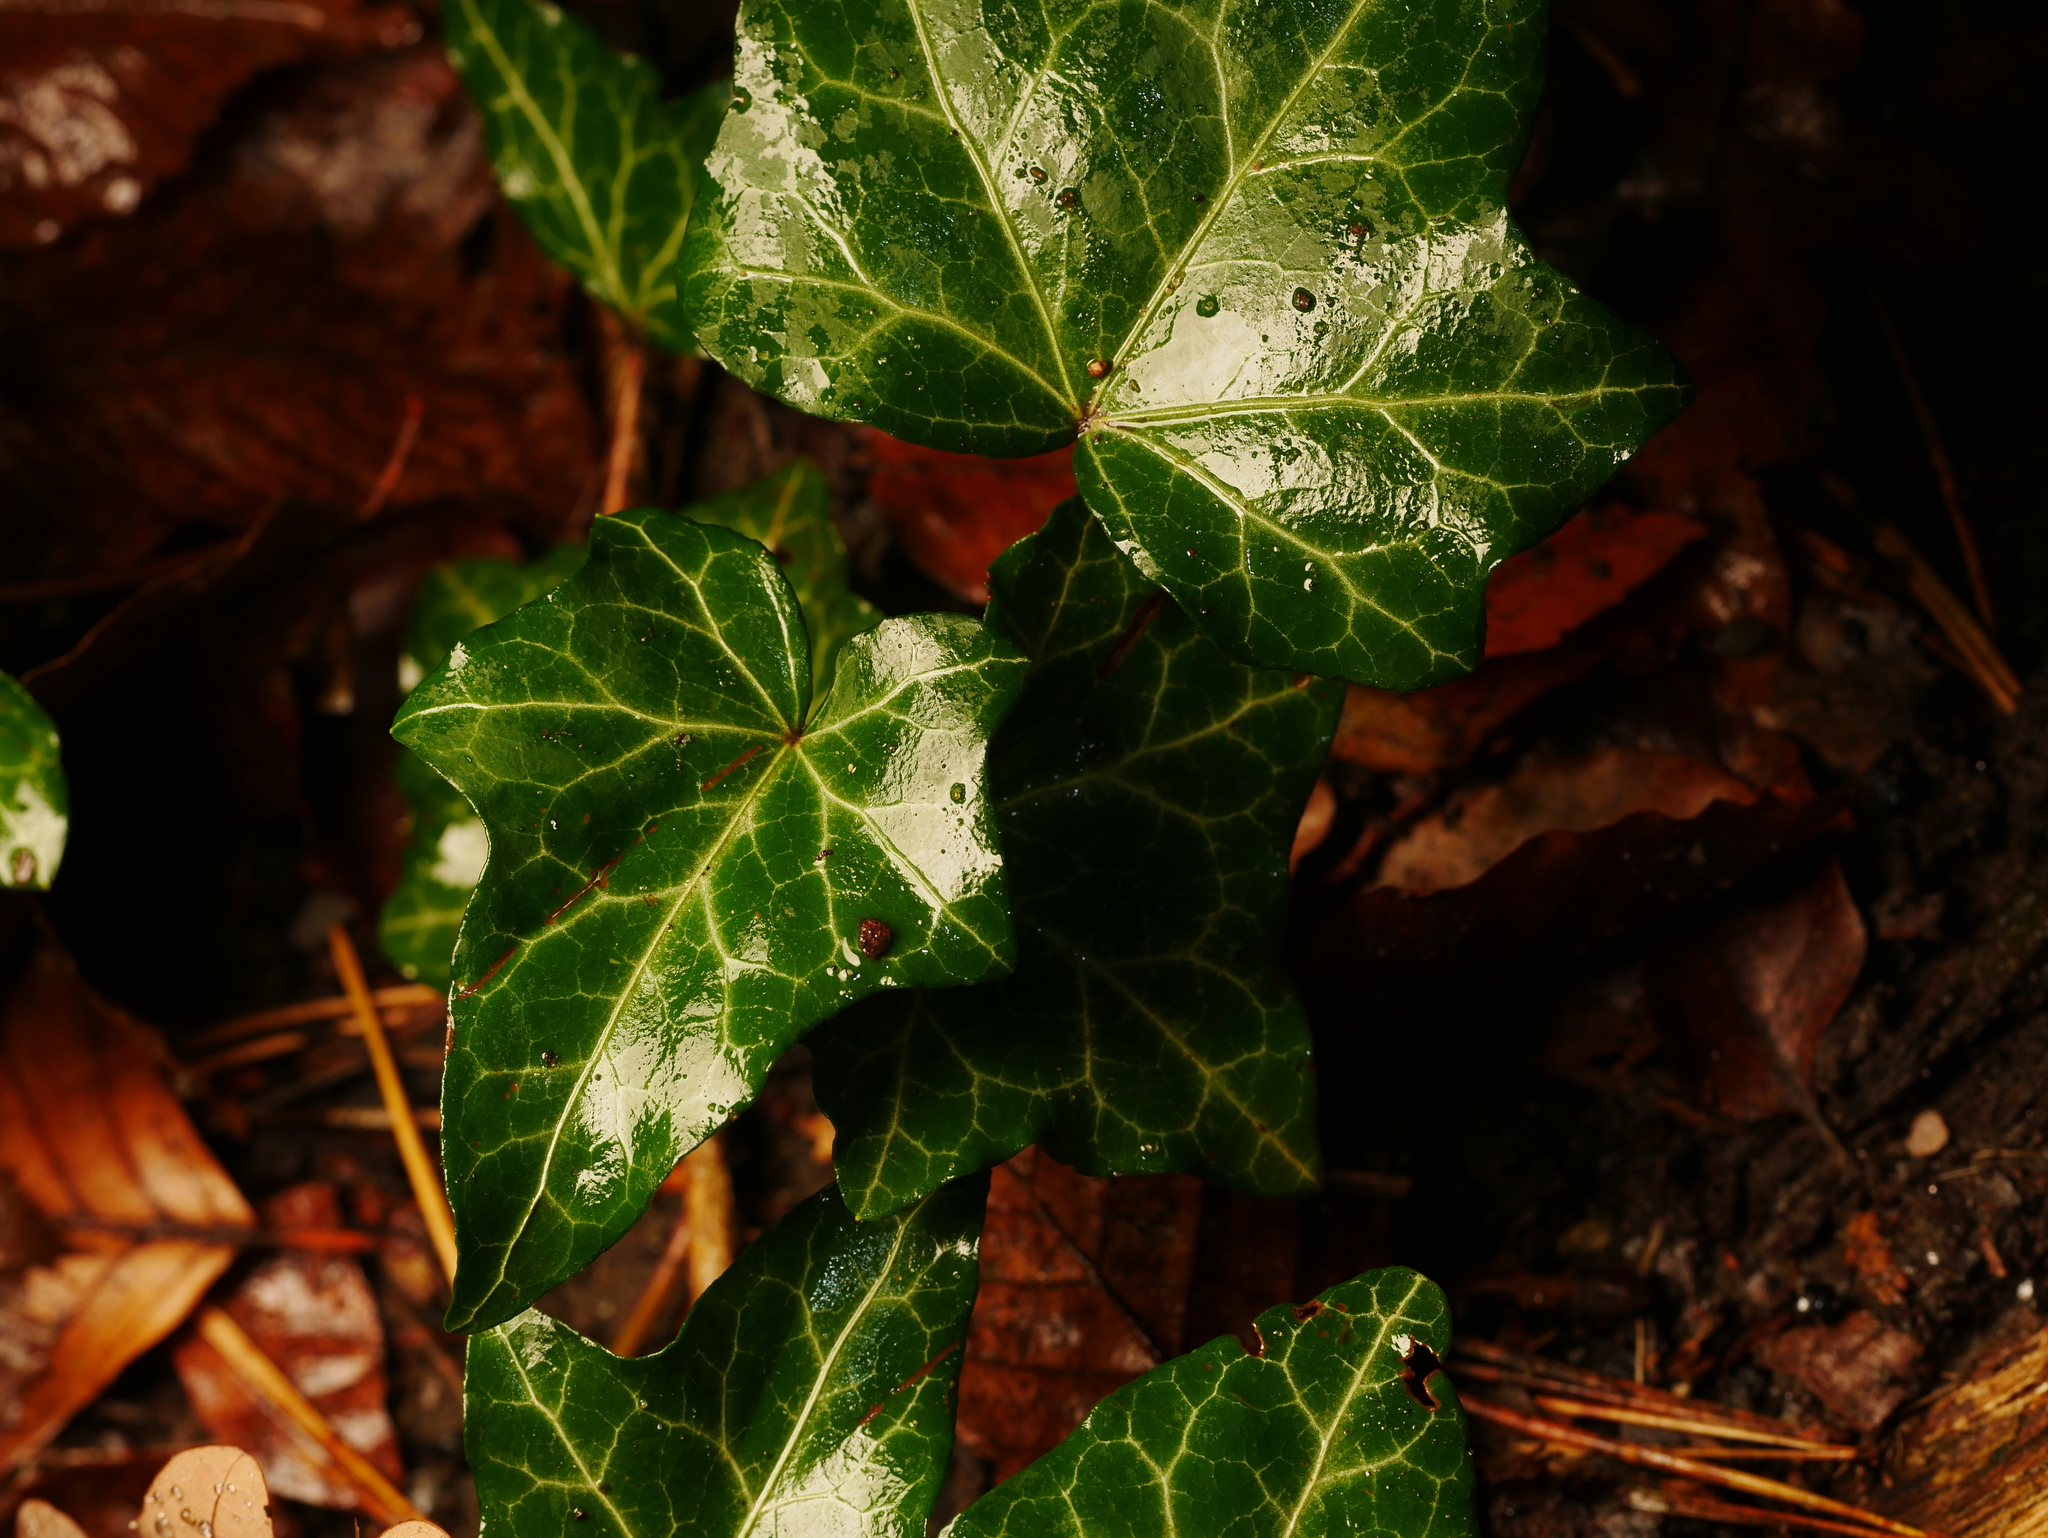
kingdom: Plantae
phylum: Tracheophyta
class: Magnoliopsida
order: Apiales
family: Araliaceae
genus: Hedera
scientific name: Hedera helix
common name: Ivy
